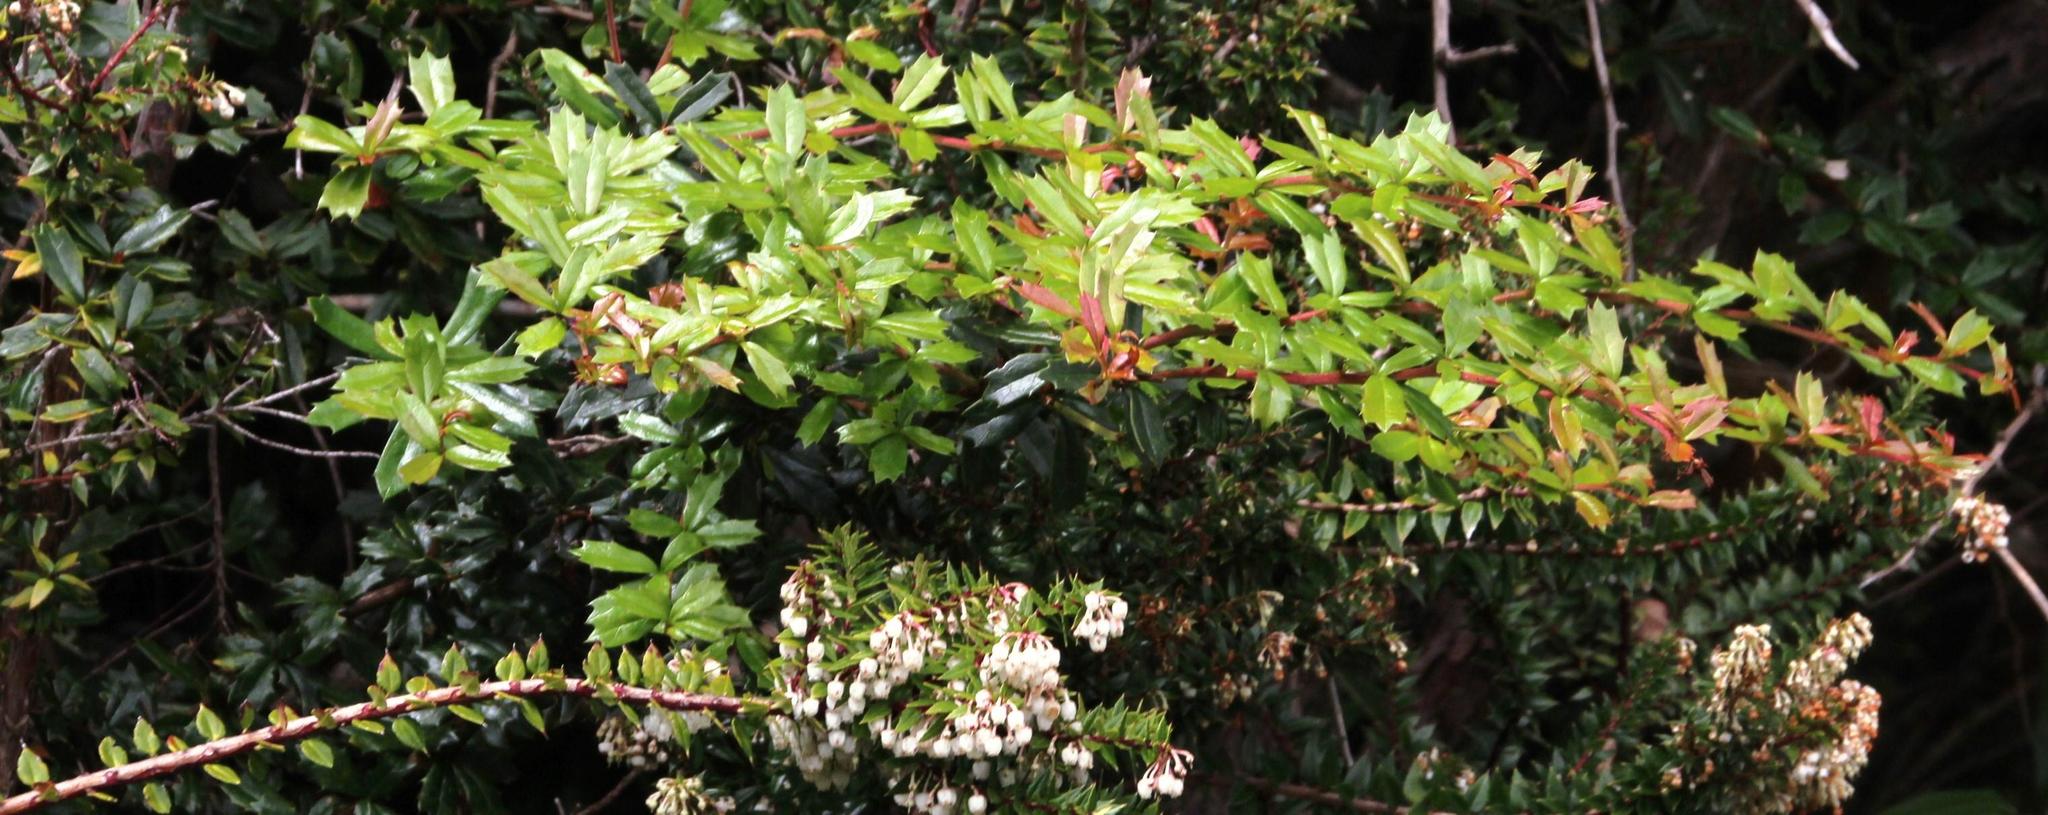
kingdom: Plantae
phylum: Tracheophyta
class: Magnoliopsida
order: Ranunculales
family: Berberidaceae
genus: Berberis
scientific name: Berberis darwinii
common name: Darwin's barberry
